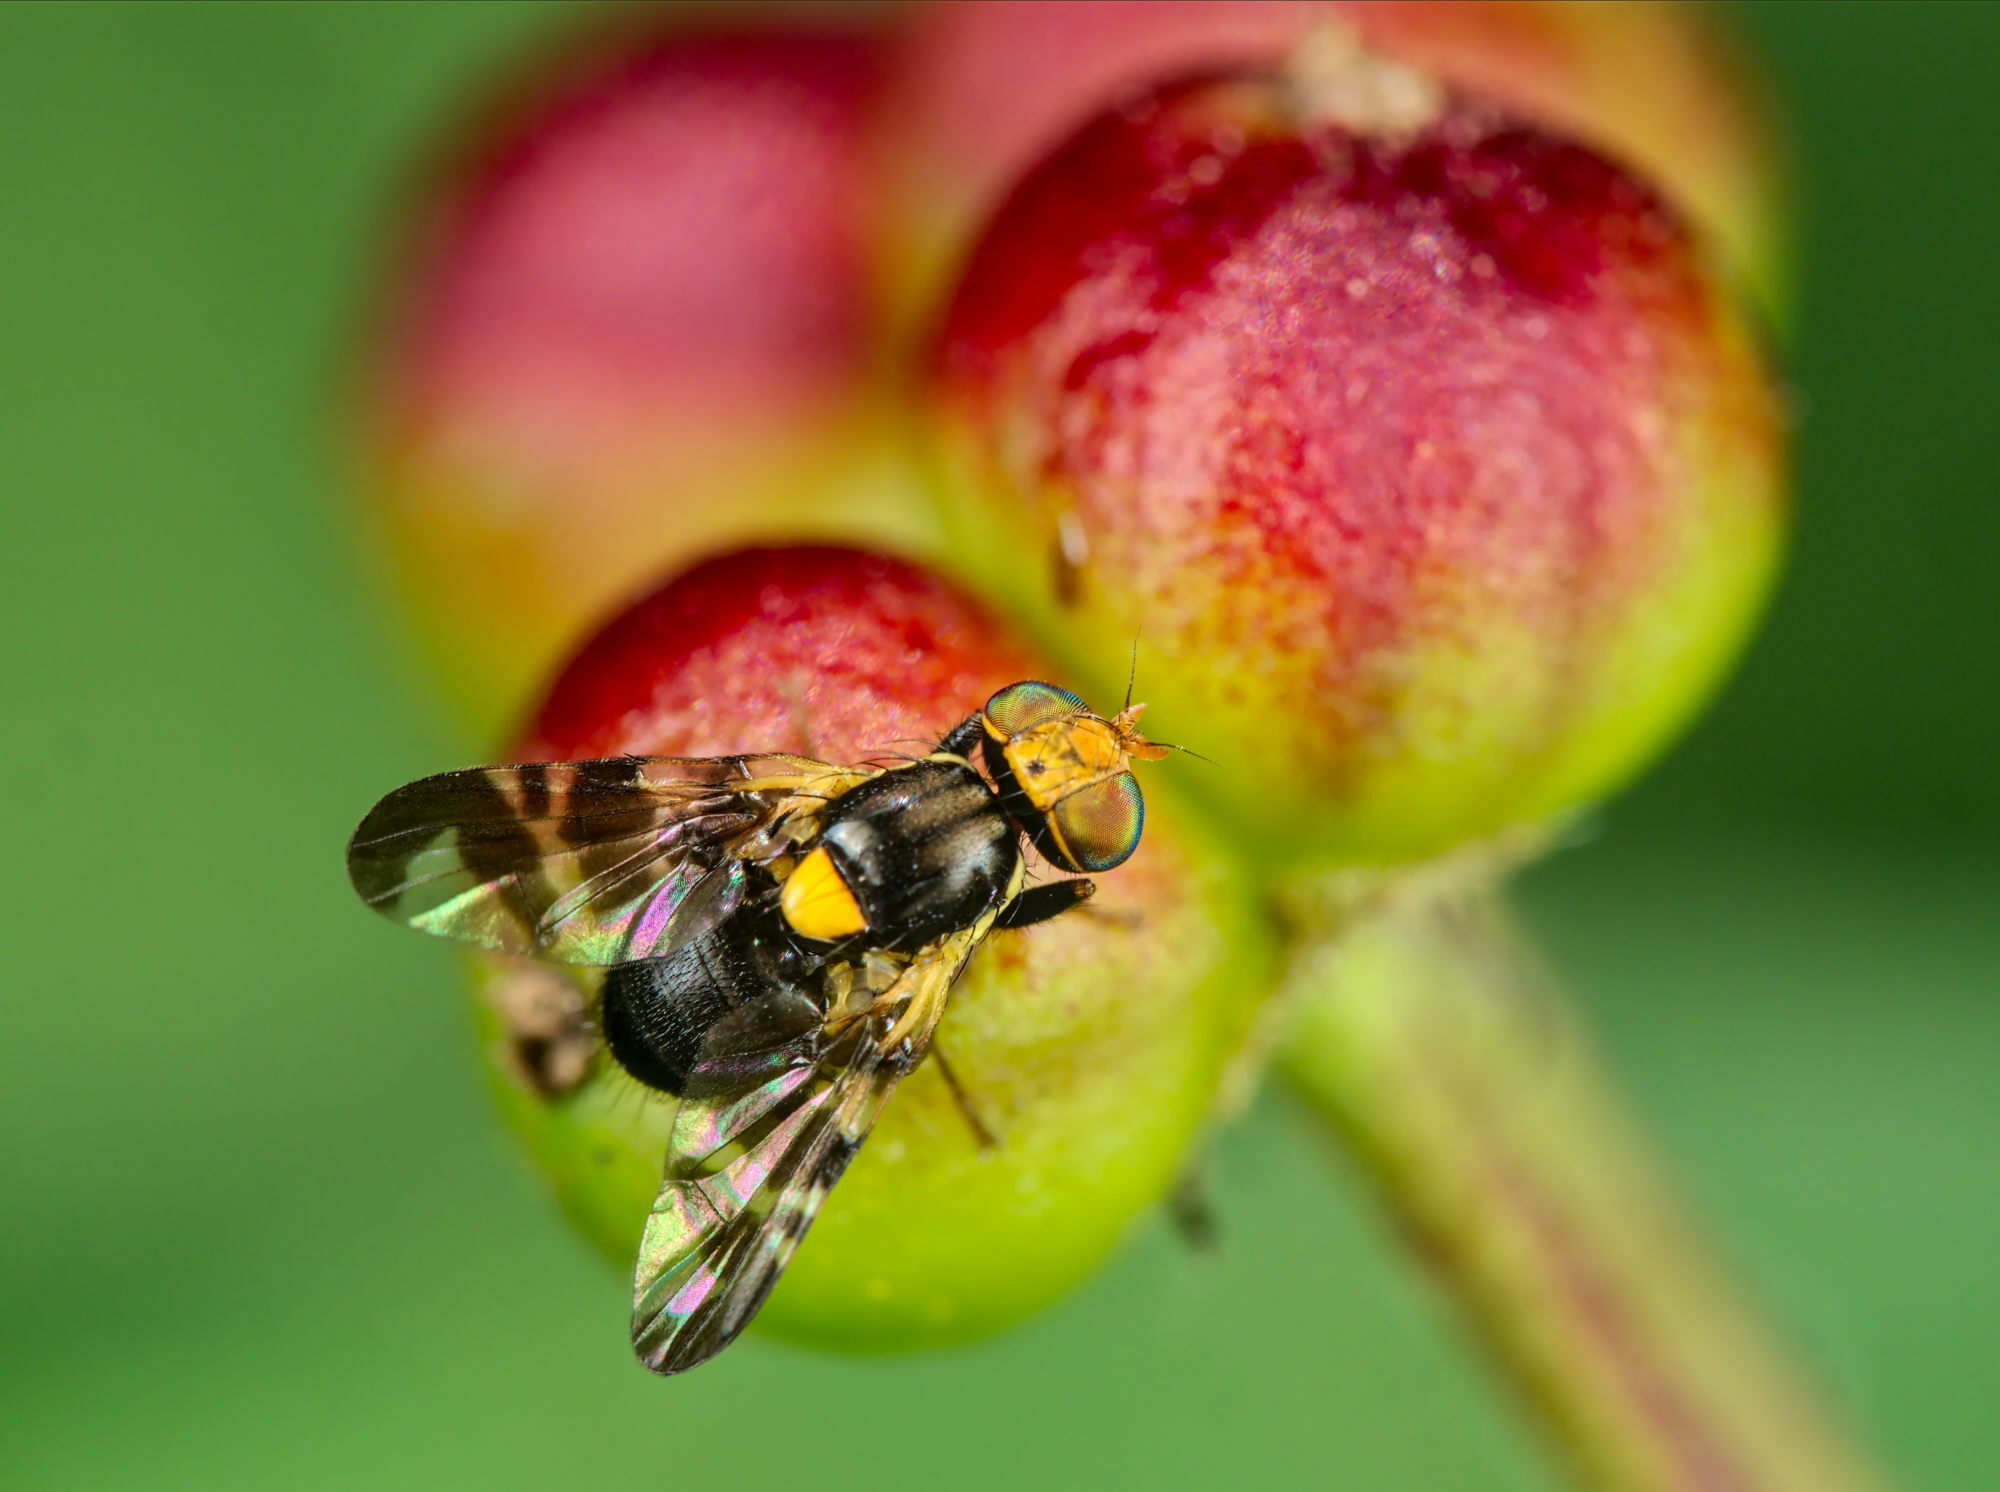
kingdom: Animalia
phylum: Arthropoda
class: Insecta
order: Diptera
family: Tephritidae
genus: Rhagoletis
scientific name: Rhagoletis cerasi
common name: European cherry fruit fly
